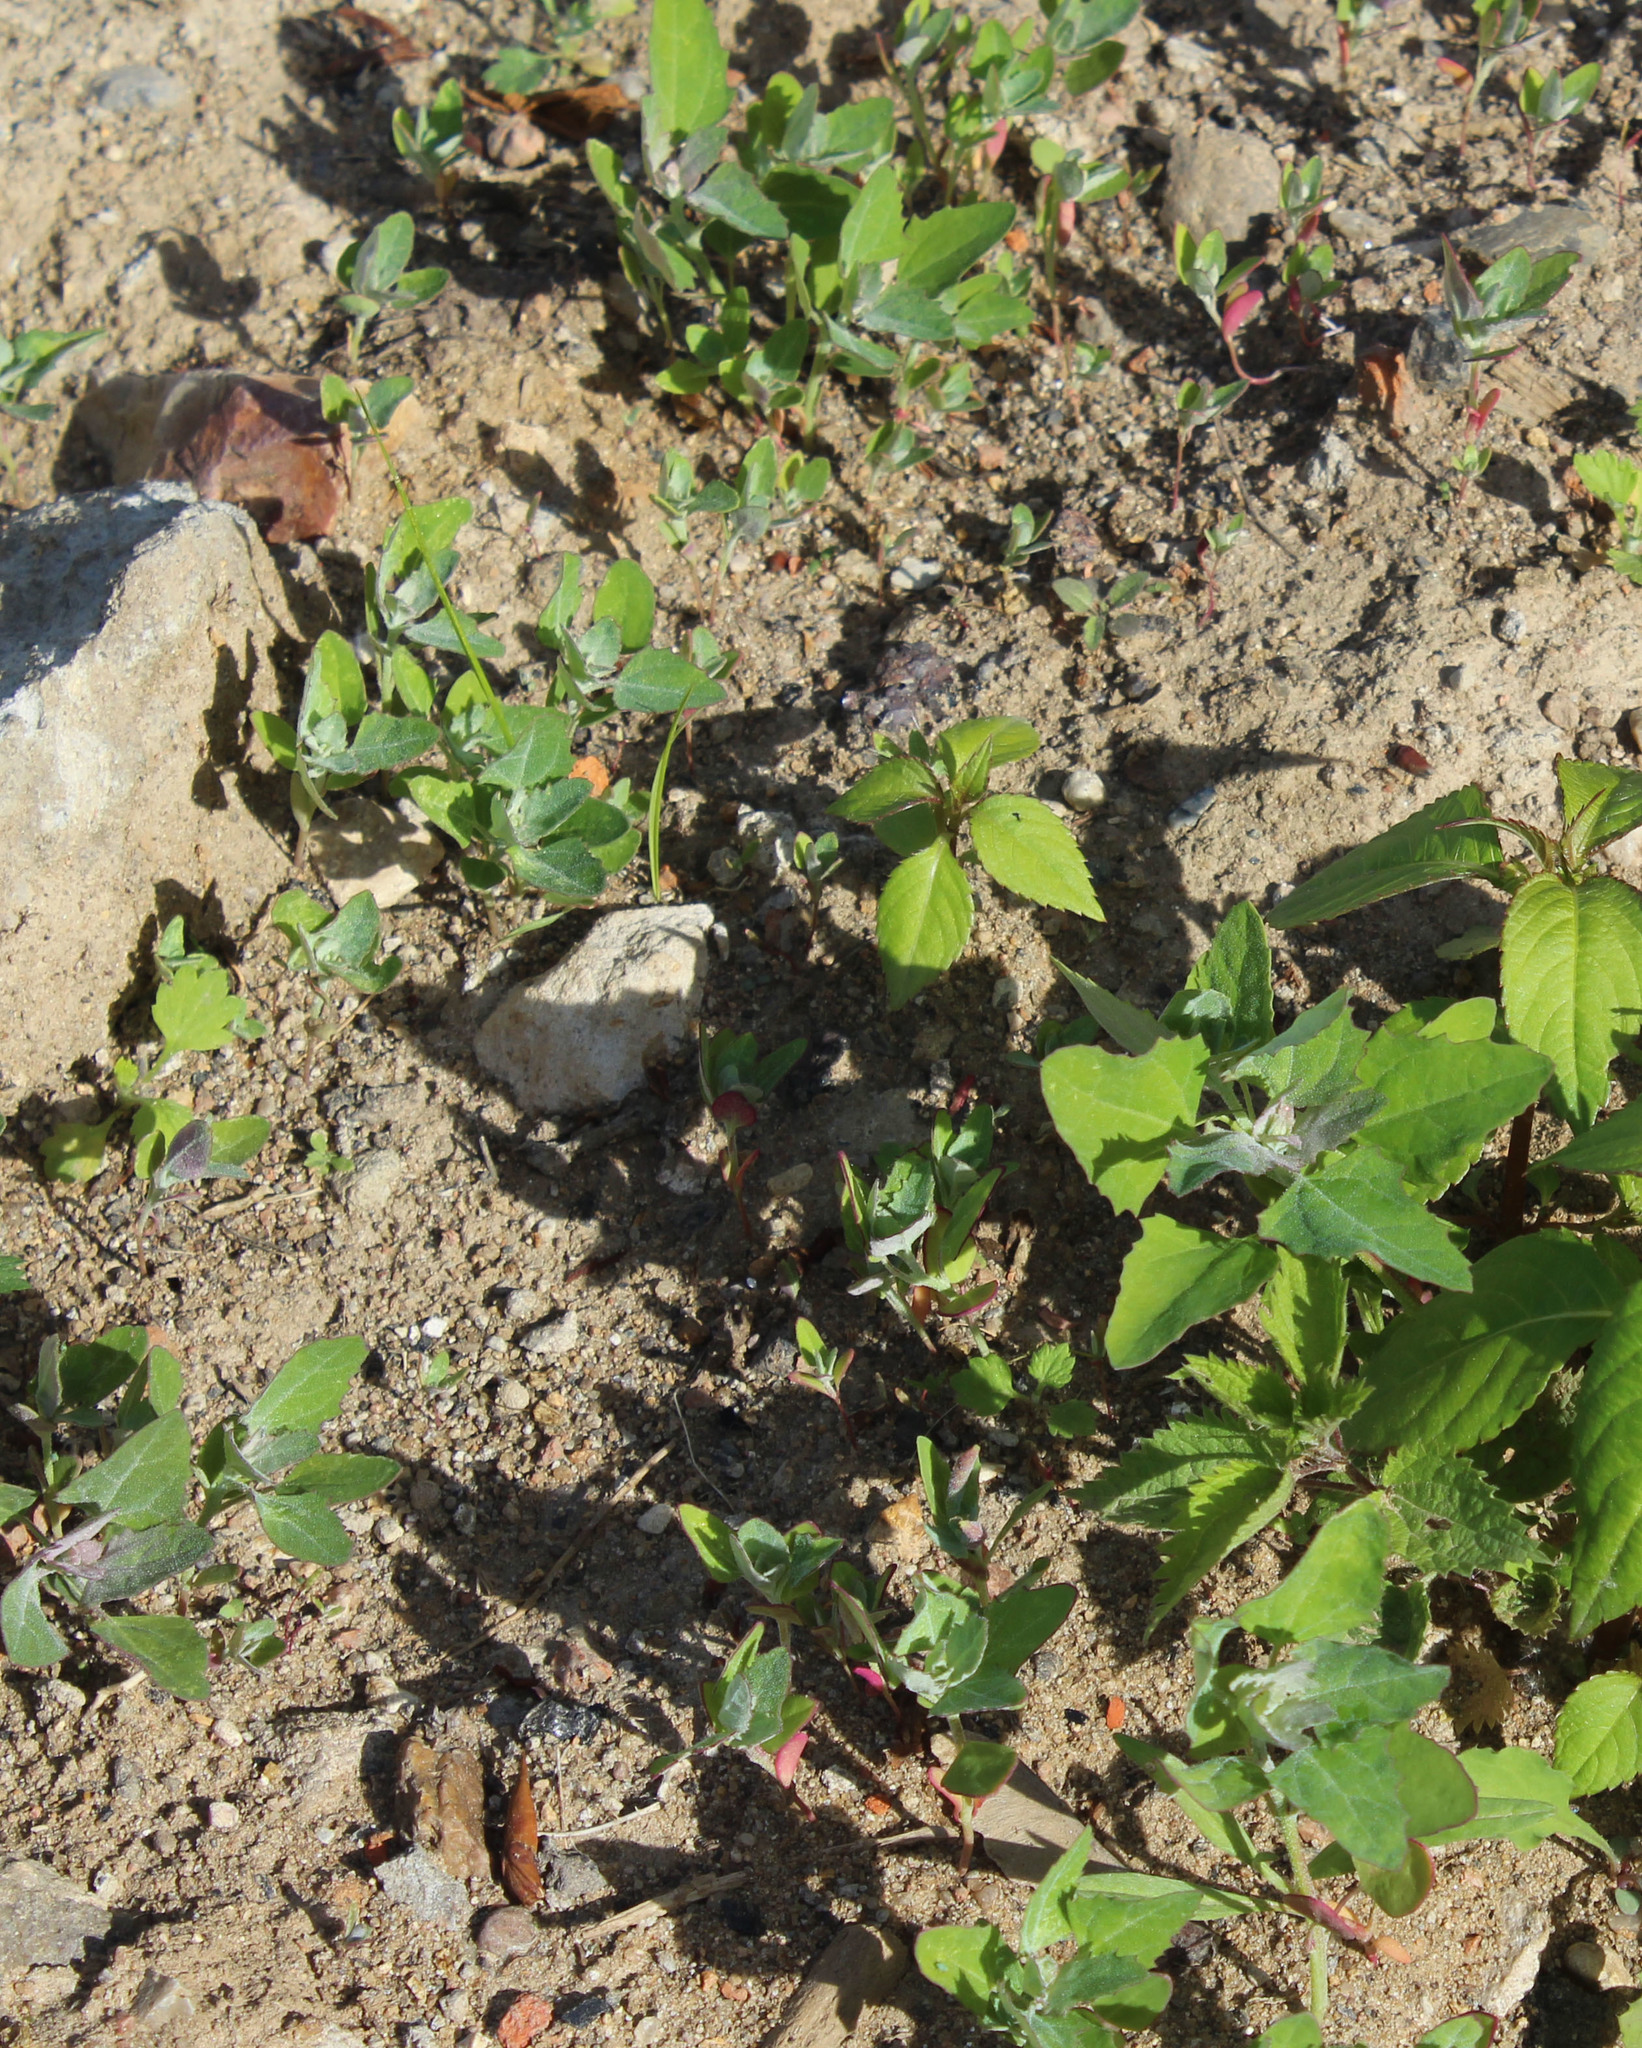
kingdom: Plantae
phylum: Tracheophyta
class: Magnoliopsida
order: Caryophyllales
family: Amaranthaceae
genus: Chenopodium
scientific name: Chenopodium album
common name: Fat-hen
